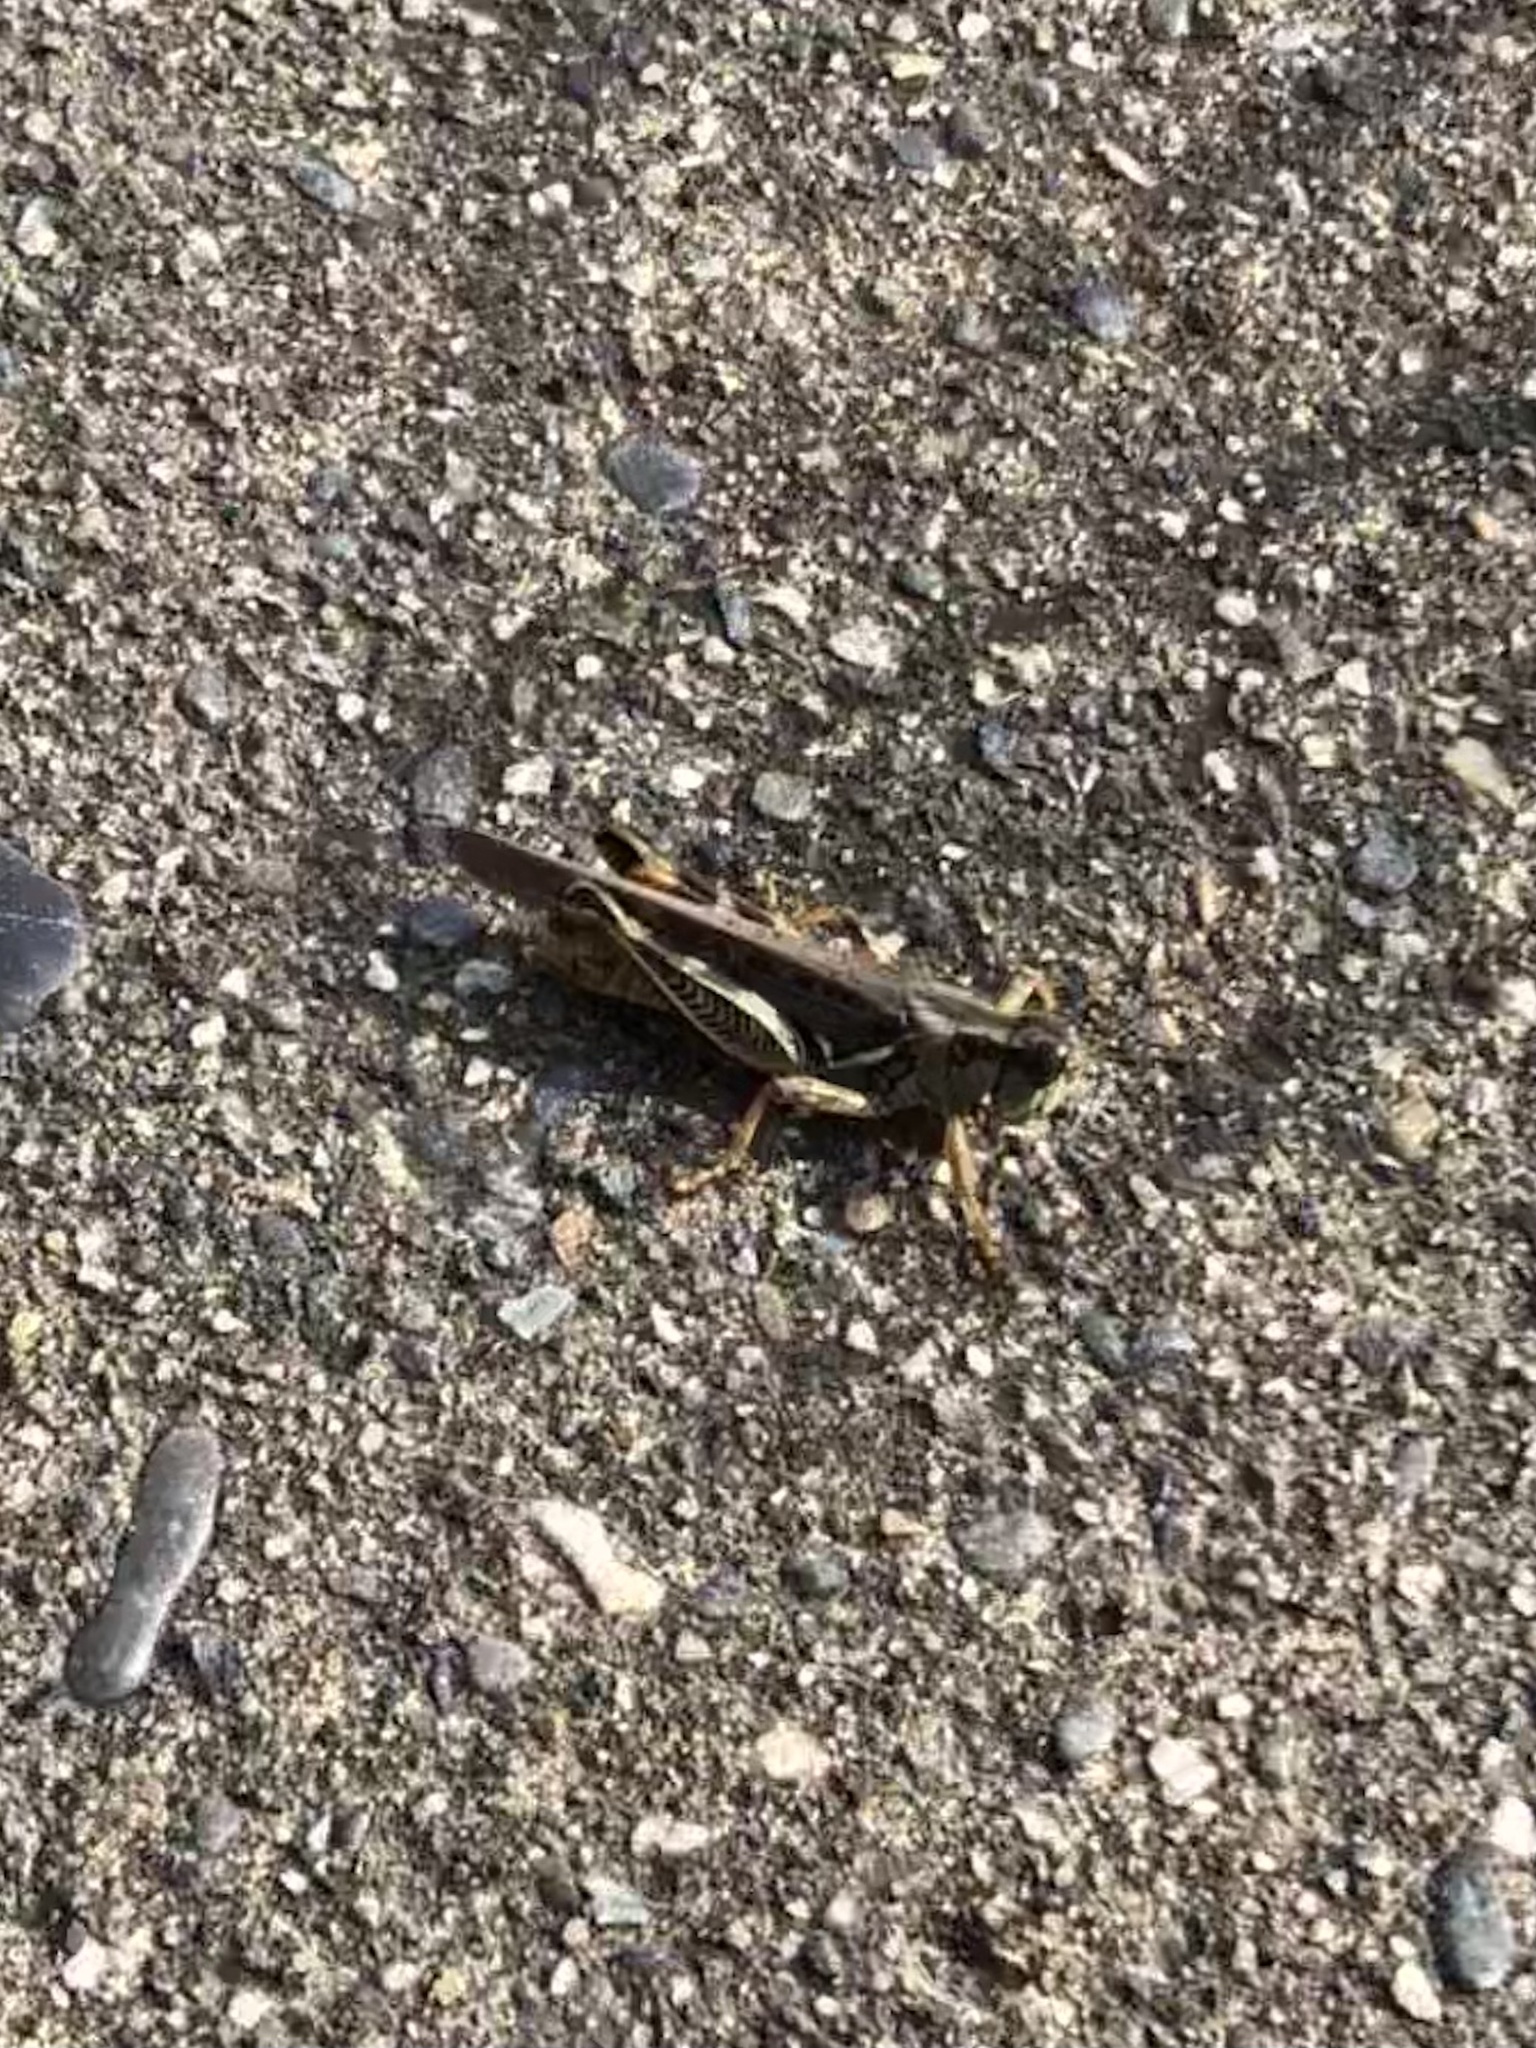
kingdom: Animalia
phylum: Arthropoda
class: Insecta
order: Orthoptera
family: Acrididae
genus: Melanoplus
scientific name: Melanoplus sanguinipes
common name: Migratory grasshopper
